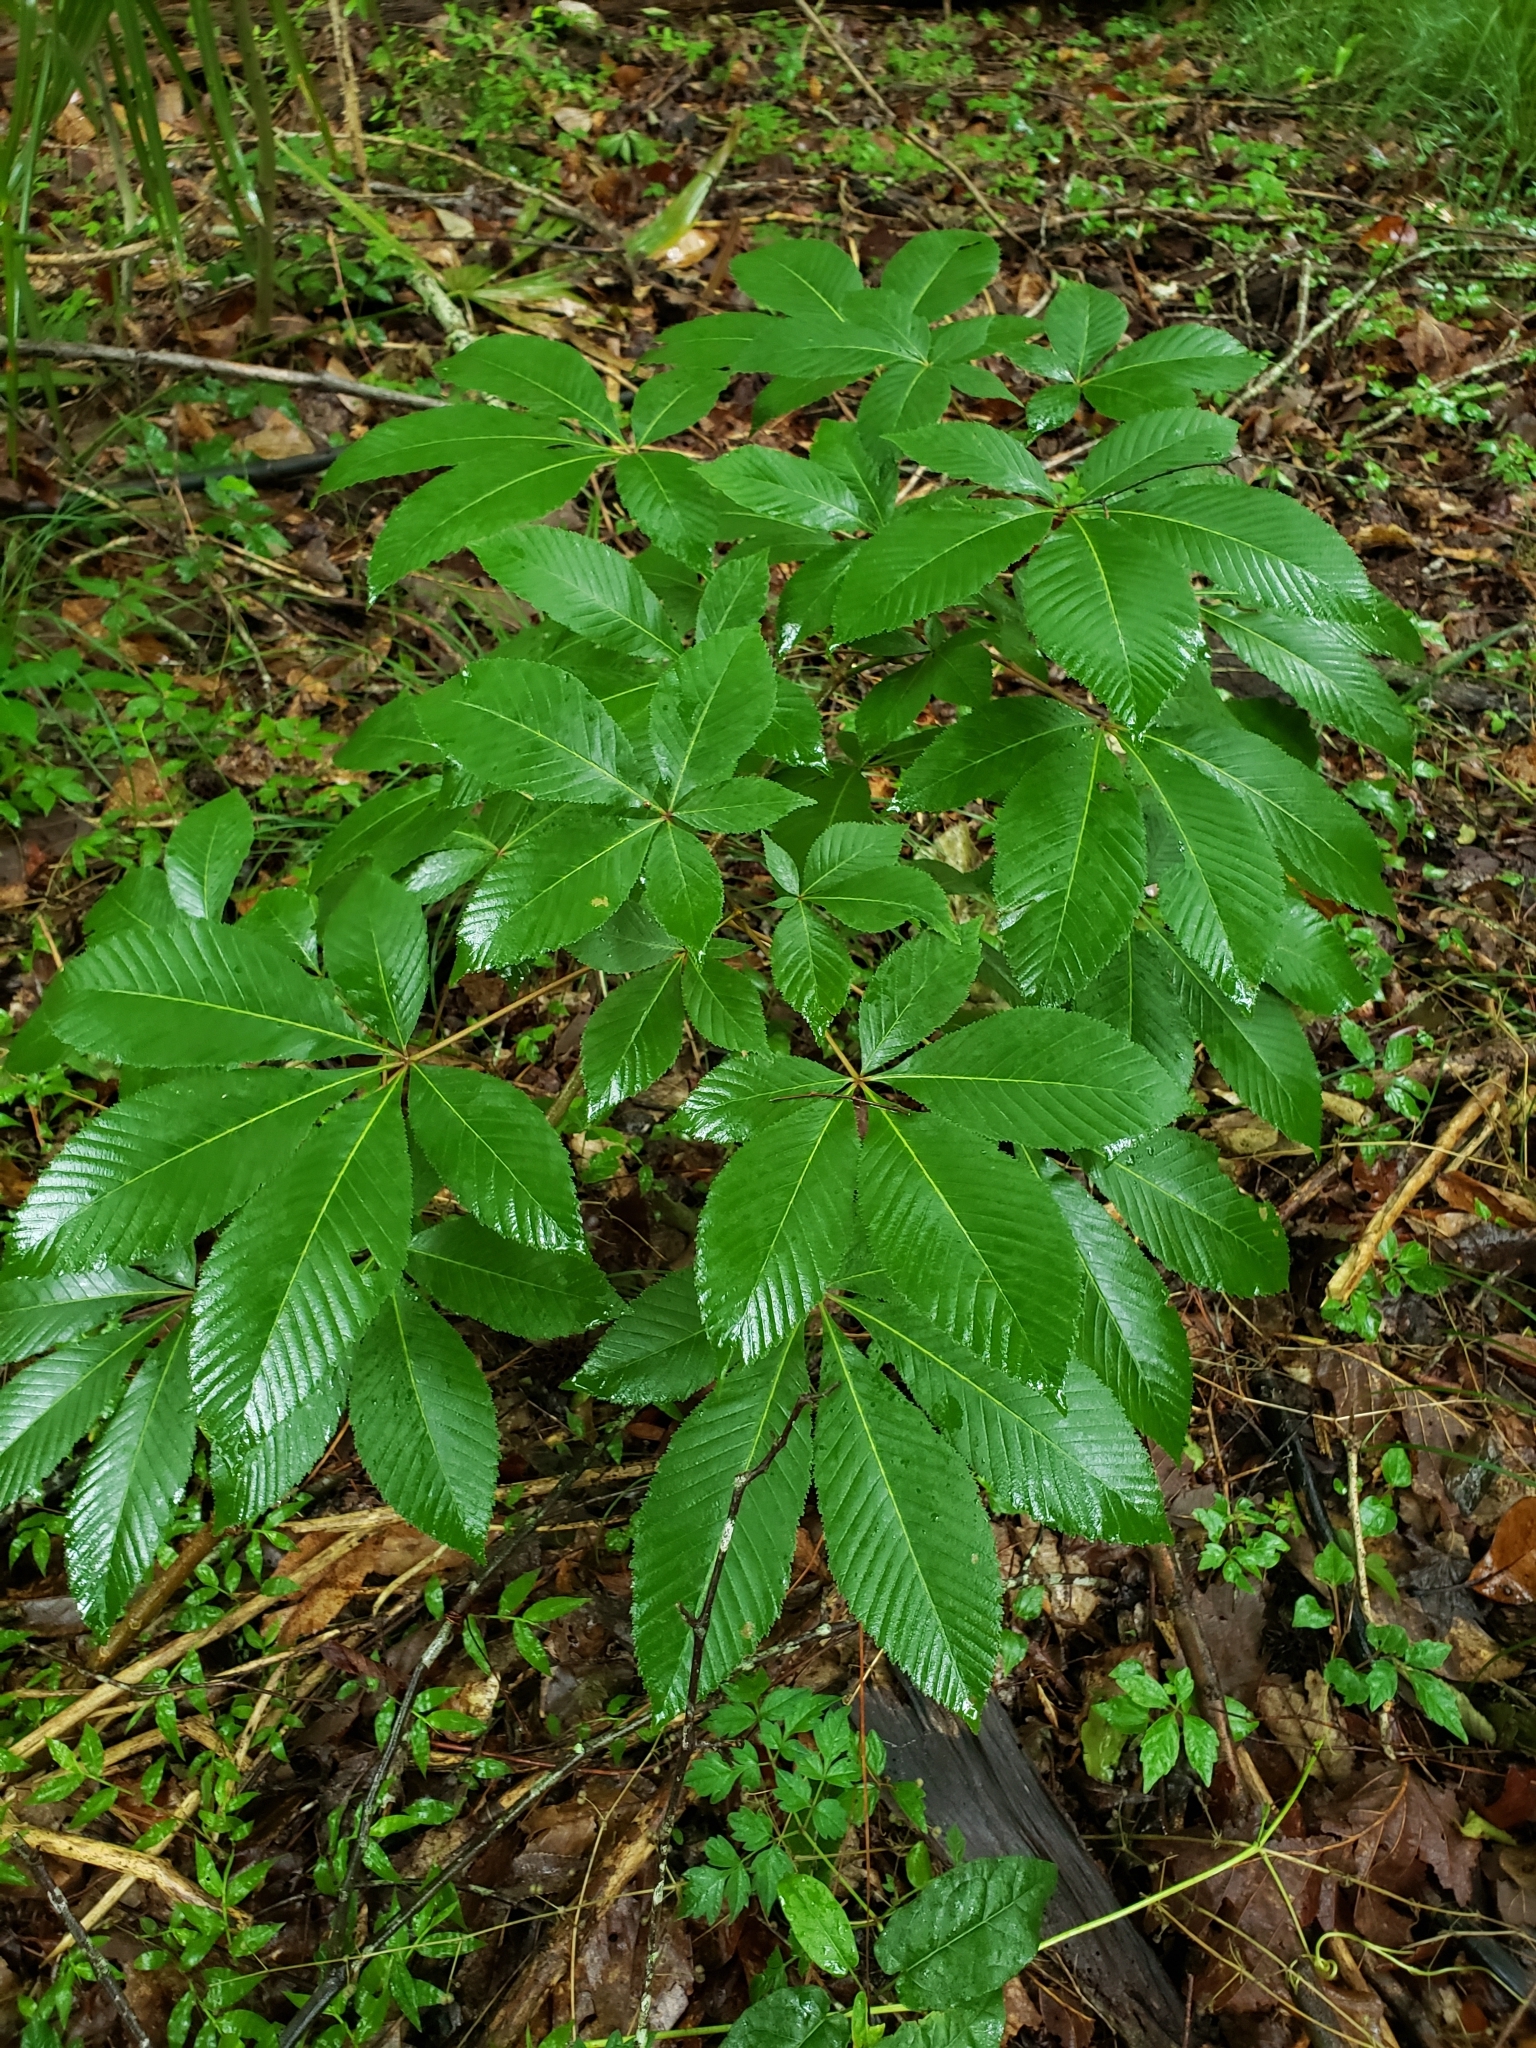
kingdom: Plantae
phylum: Tracheophyta
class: Magnoliopsida
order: Sapindales
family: Sapindaceae
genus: Aesculus
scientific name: Aesculus pavia
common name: Red buckeye
